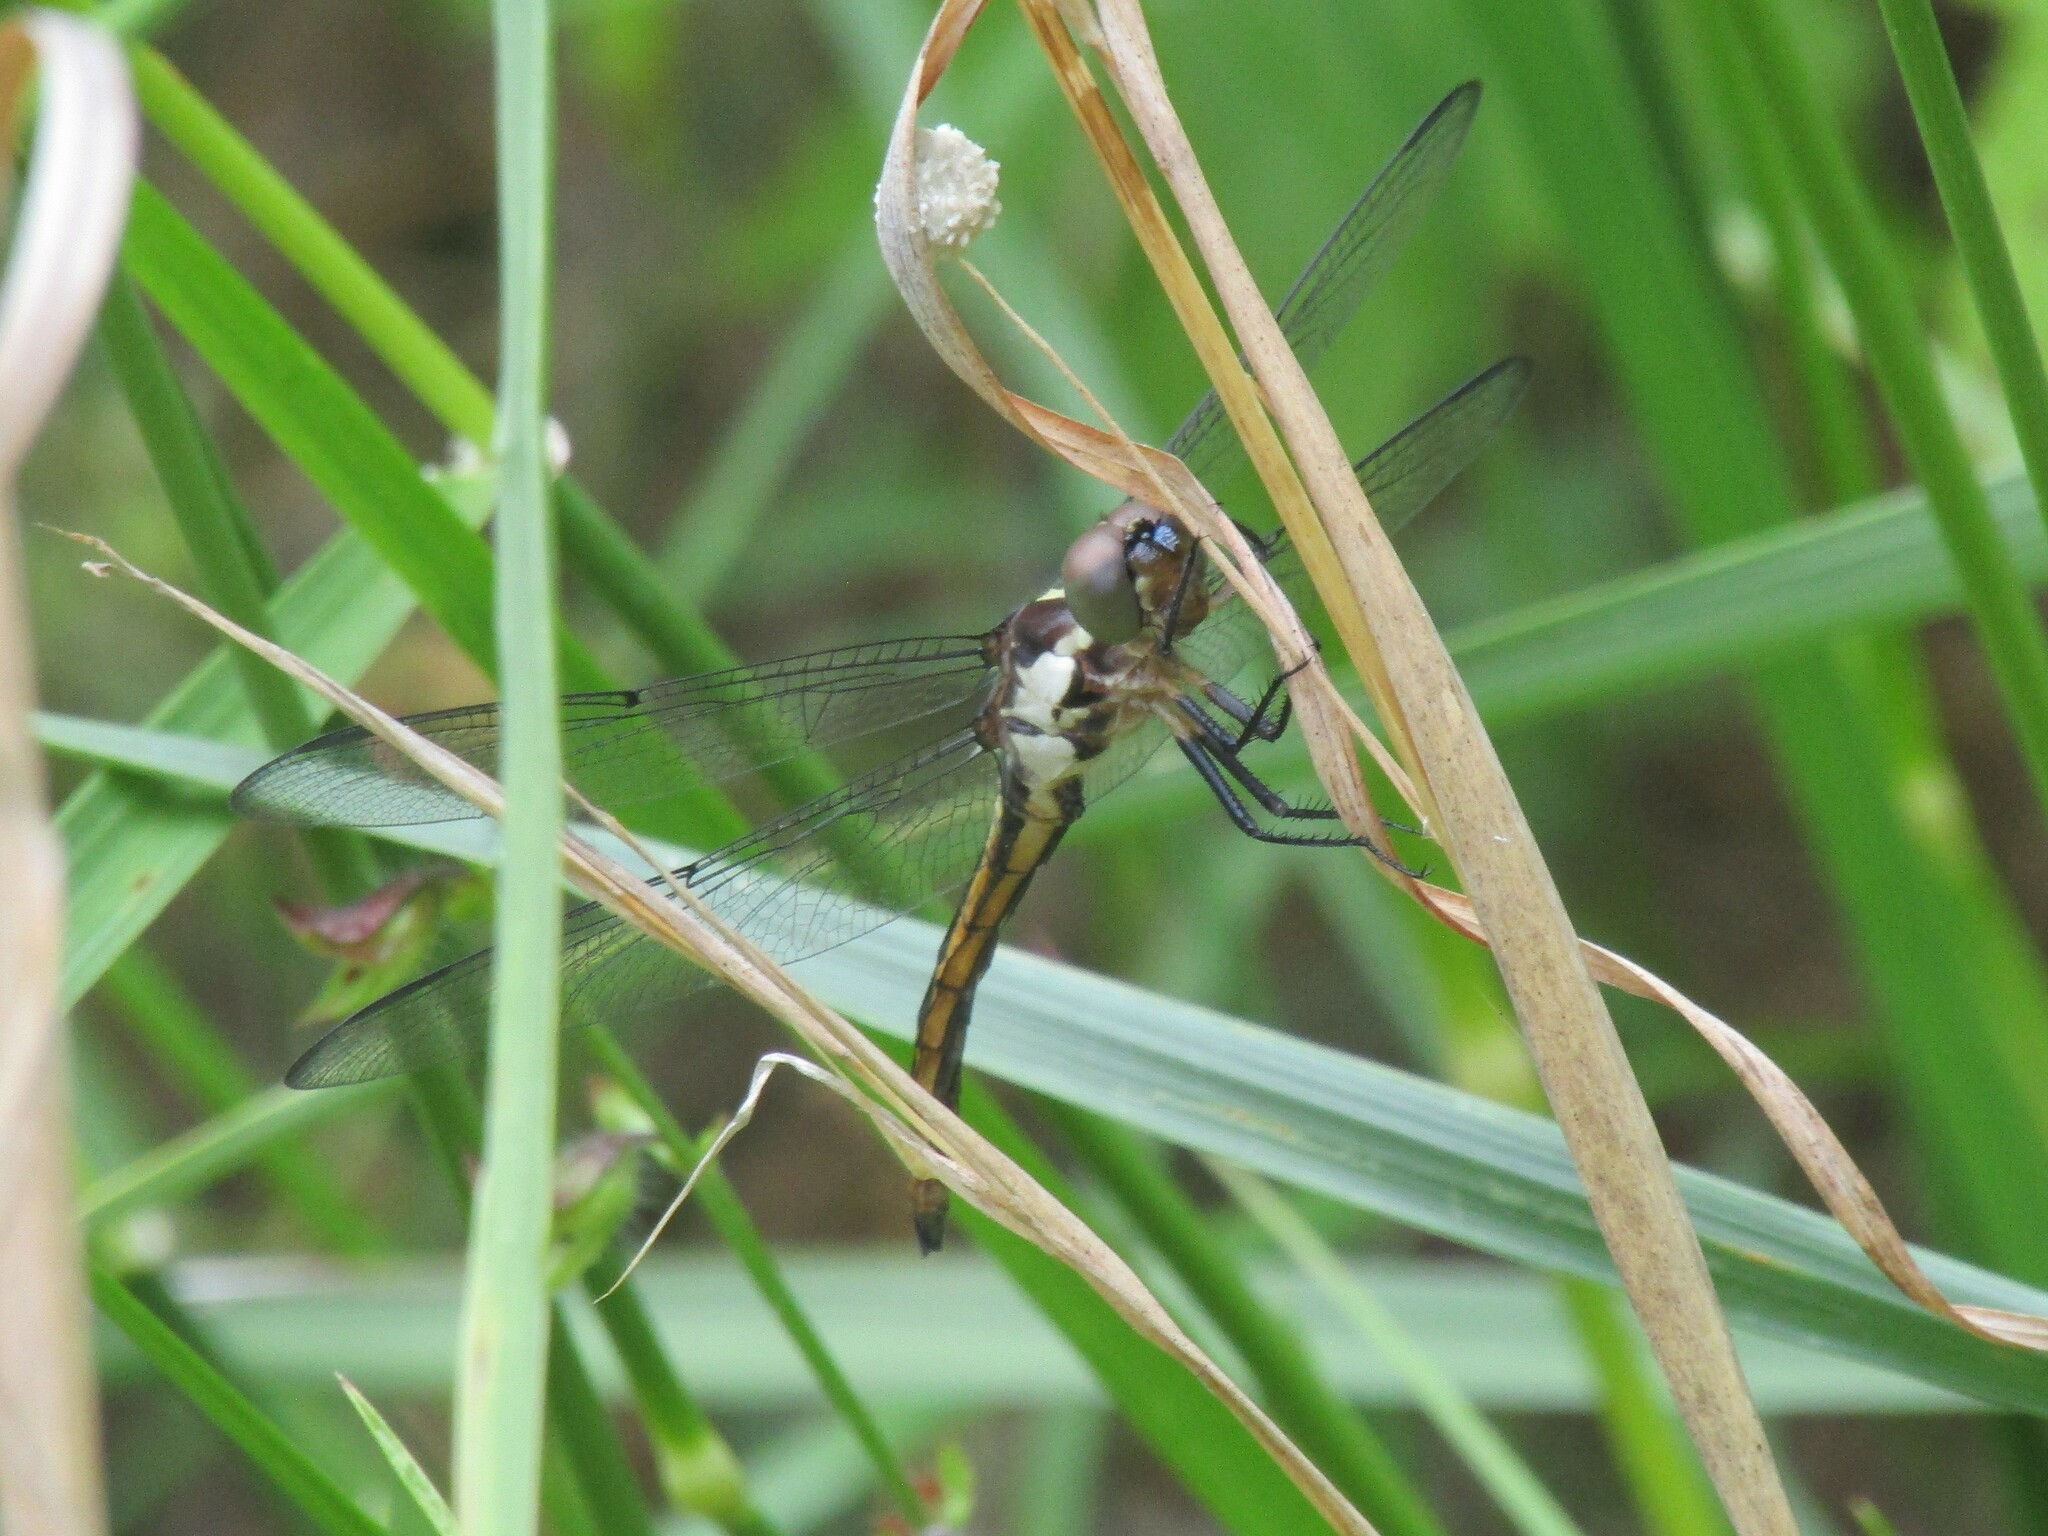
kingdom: Animalia
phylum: Arthropoda
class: Insecta
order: Odonata
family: Libellulidae
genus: Libellula
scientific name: Libellula incesta
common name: Slaty skimmer
